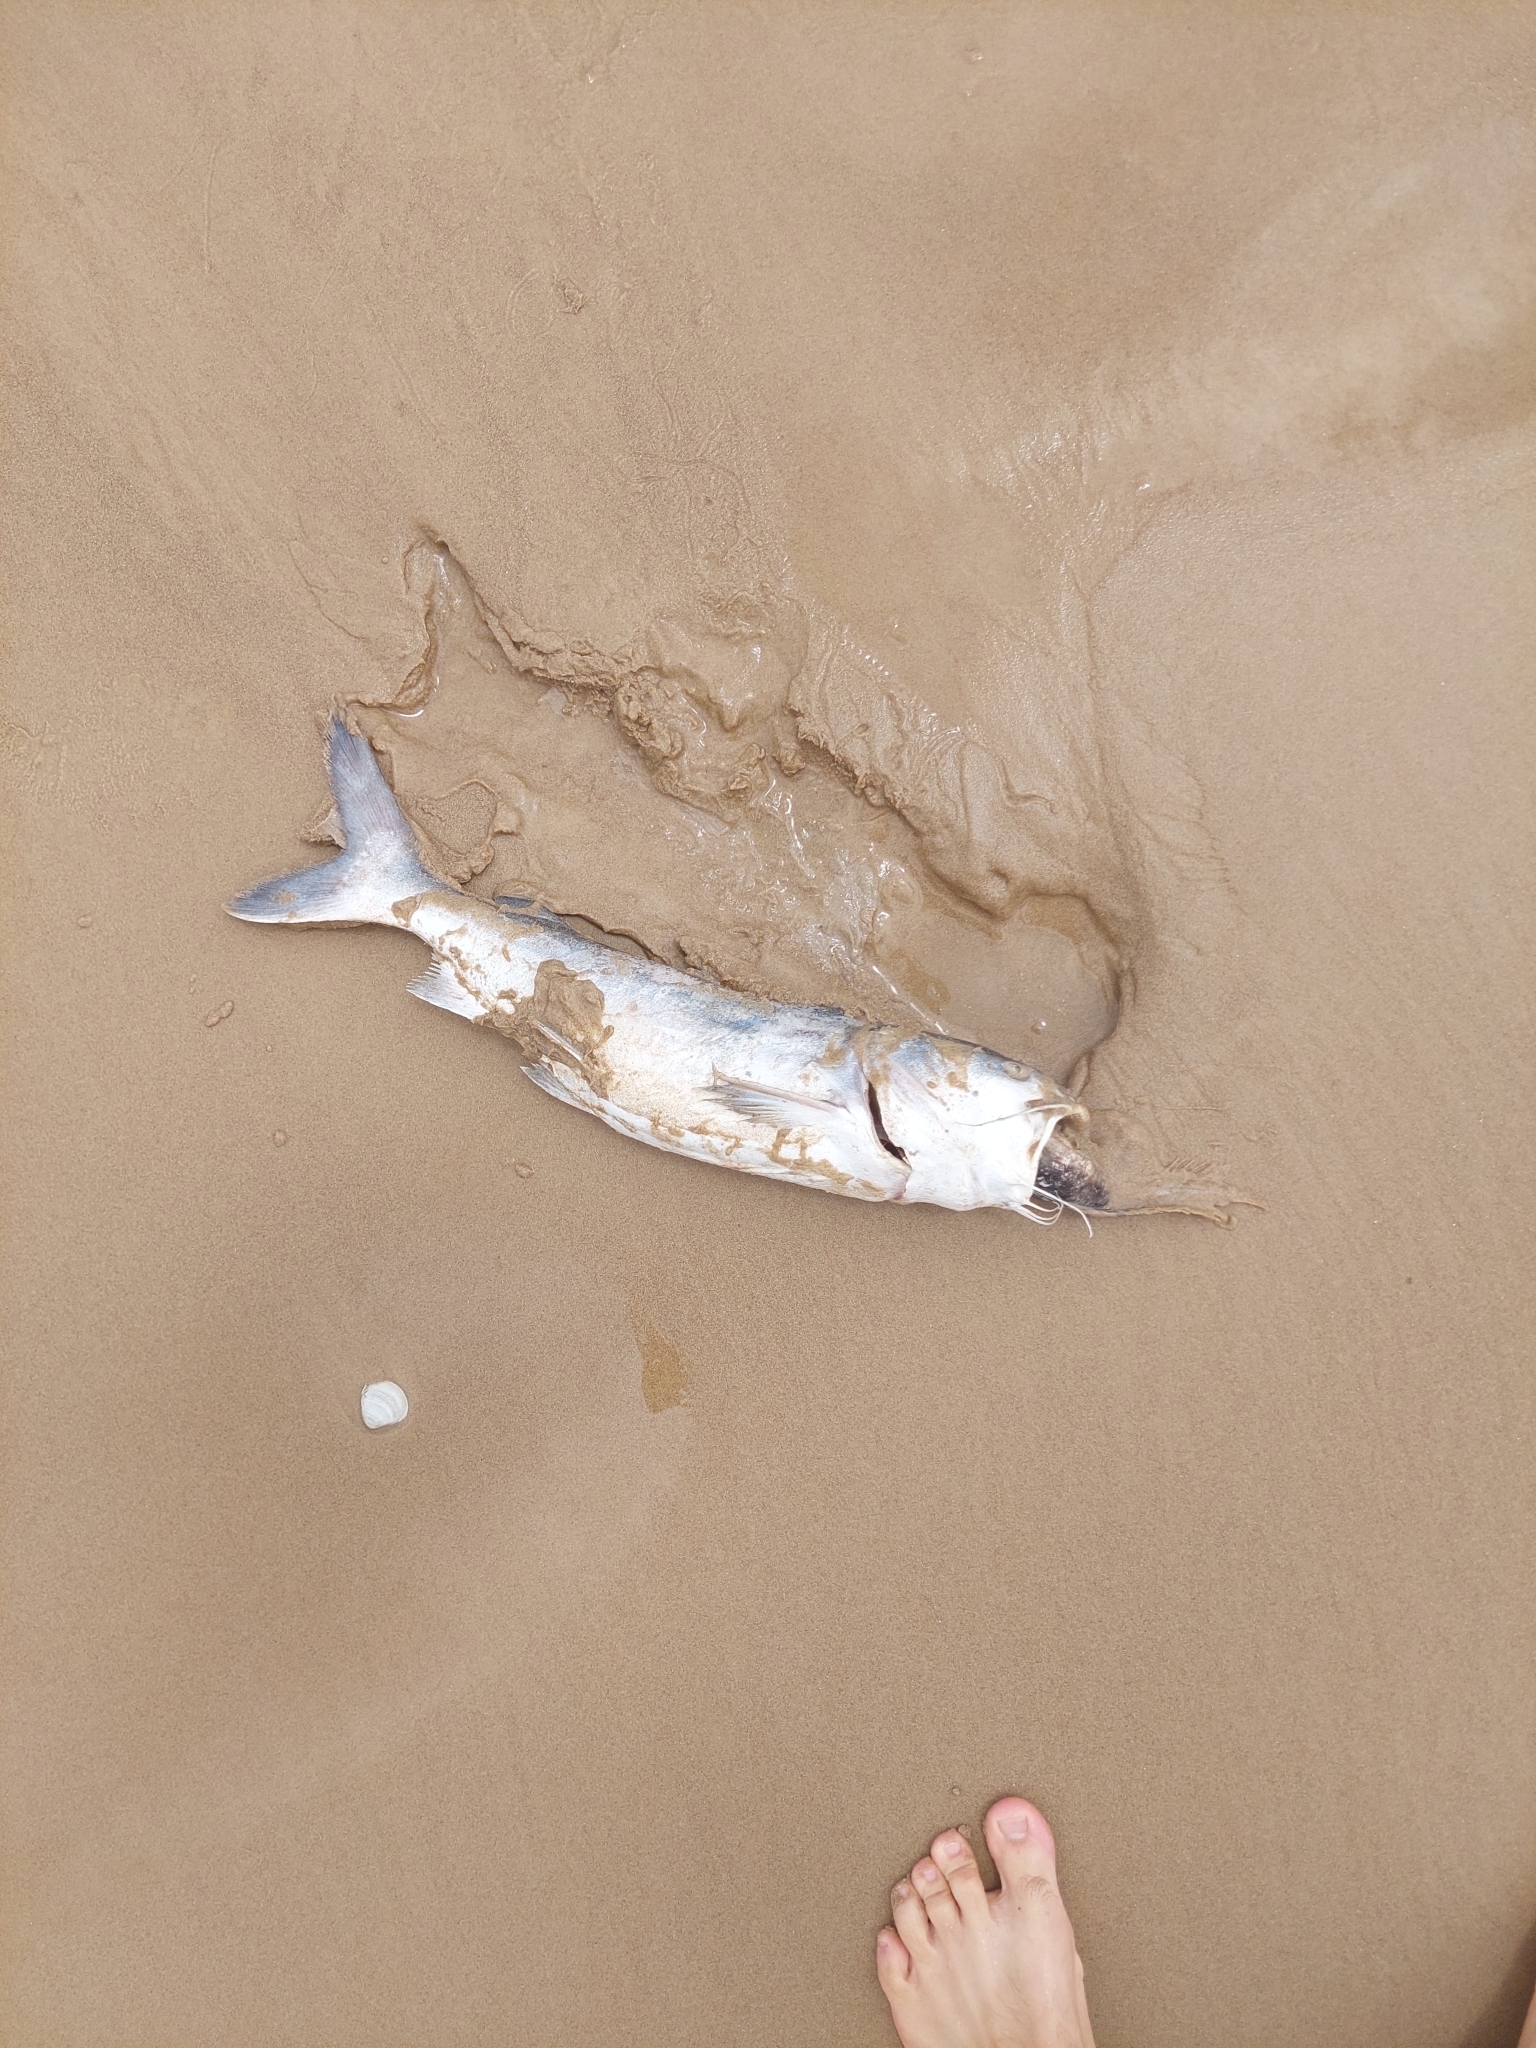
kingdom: Animalia
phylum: Chordata
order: Siluriformes
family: Ariidae
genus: Genidens
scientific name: Genidens barbus
